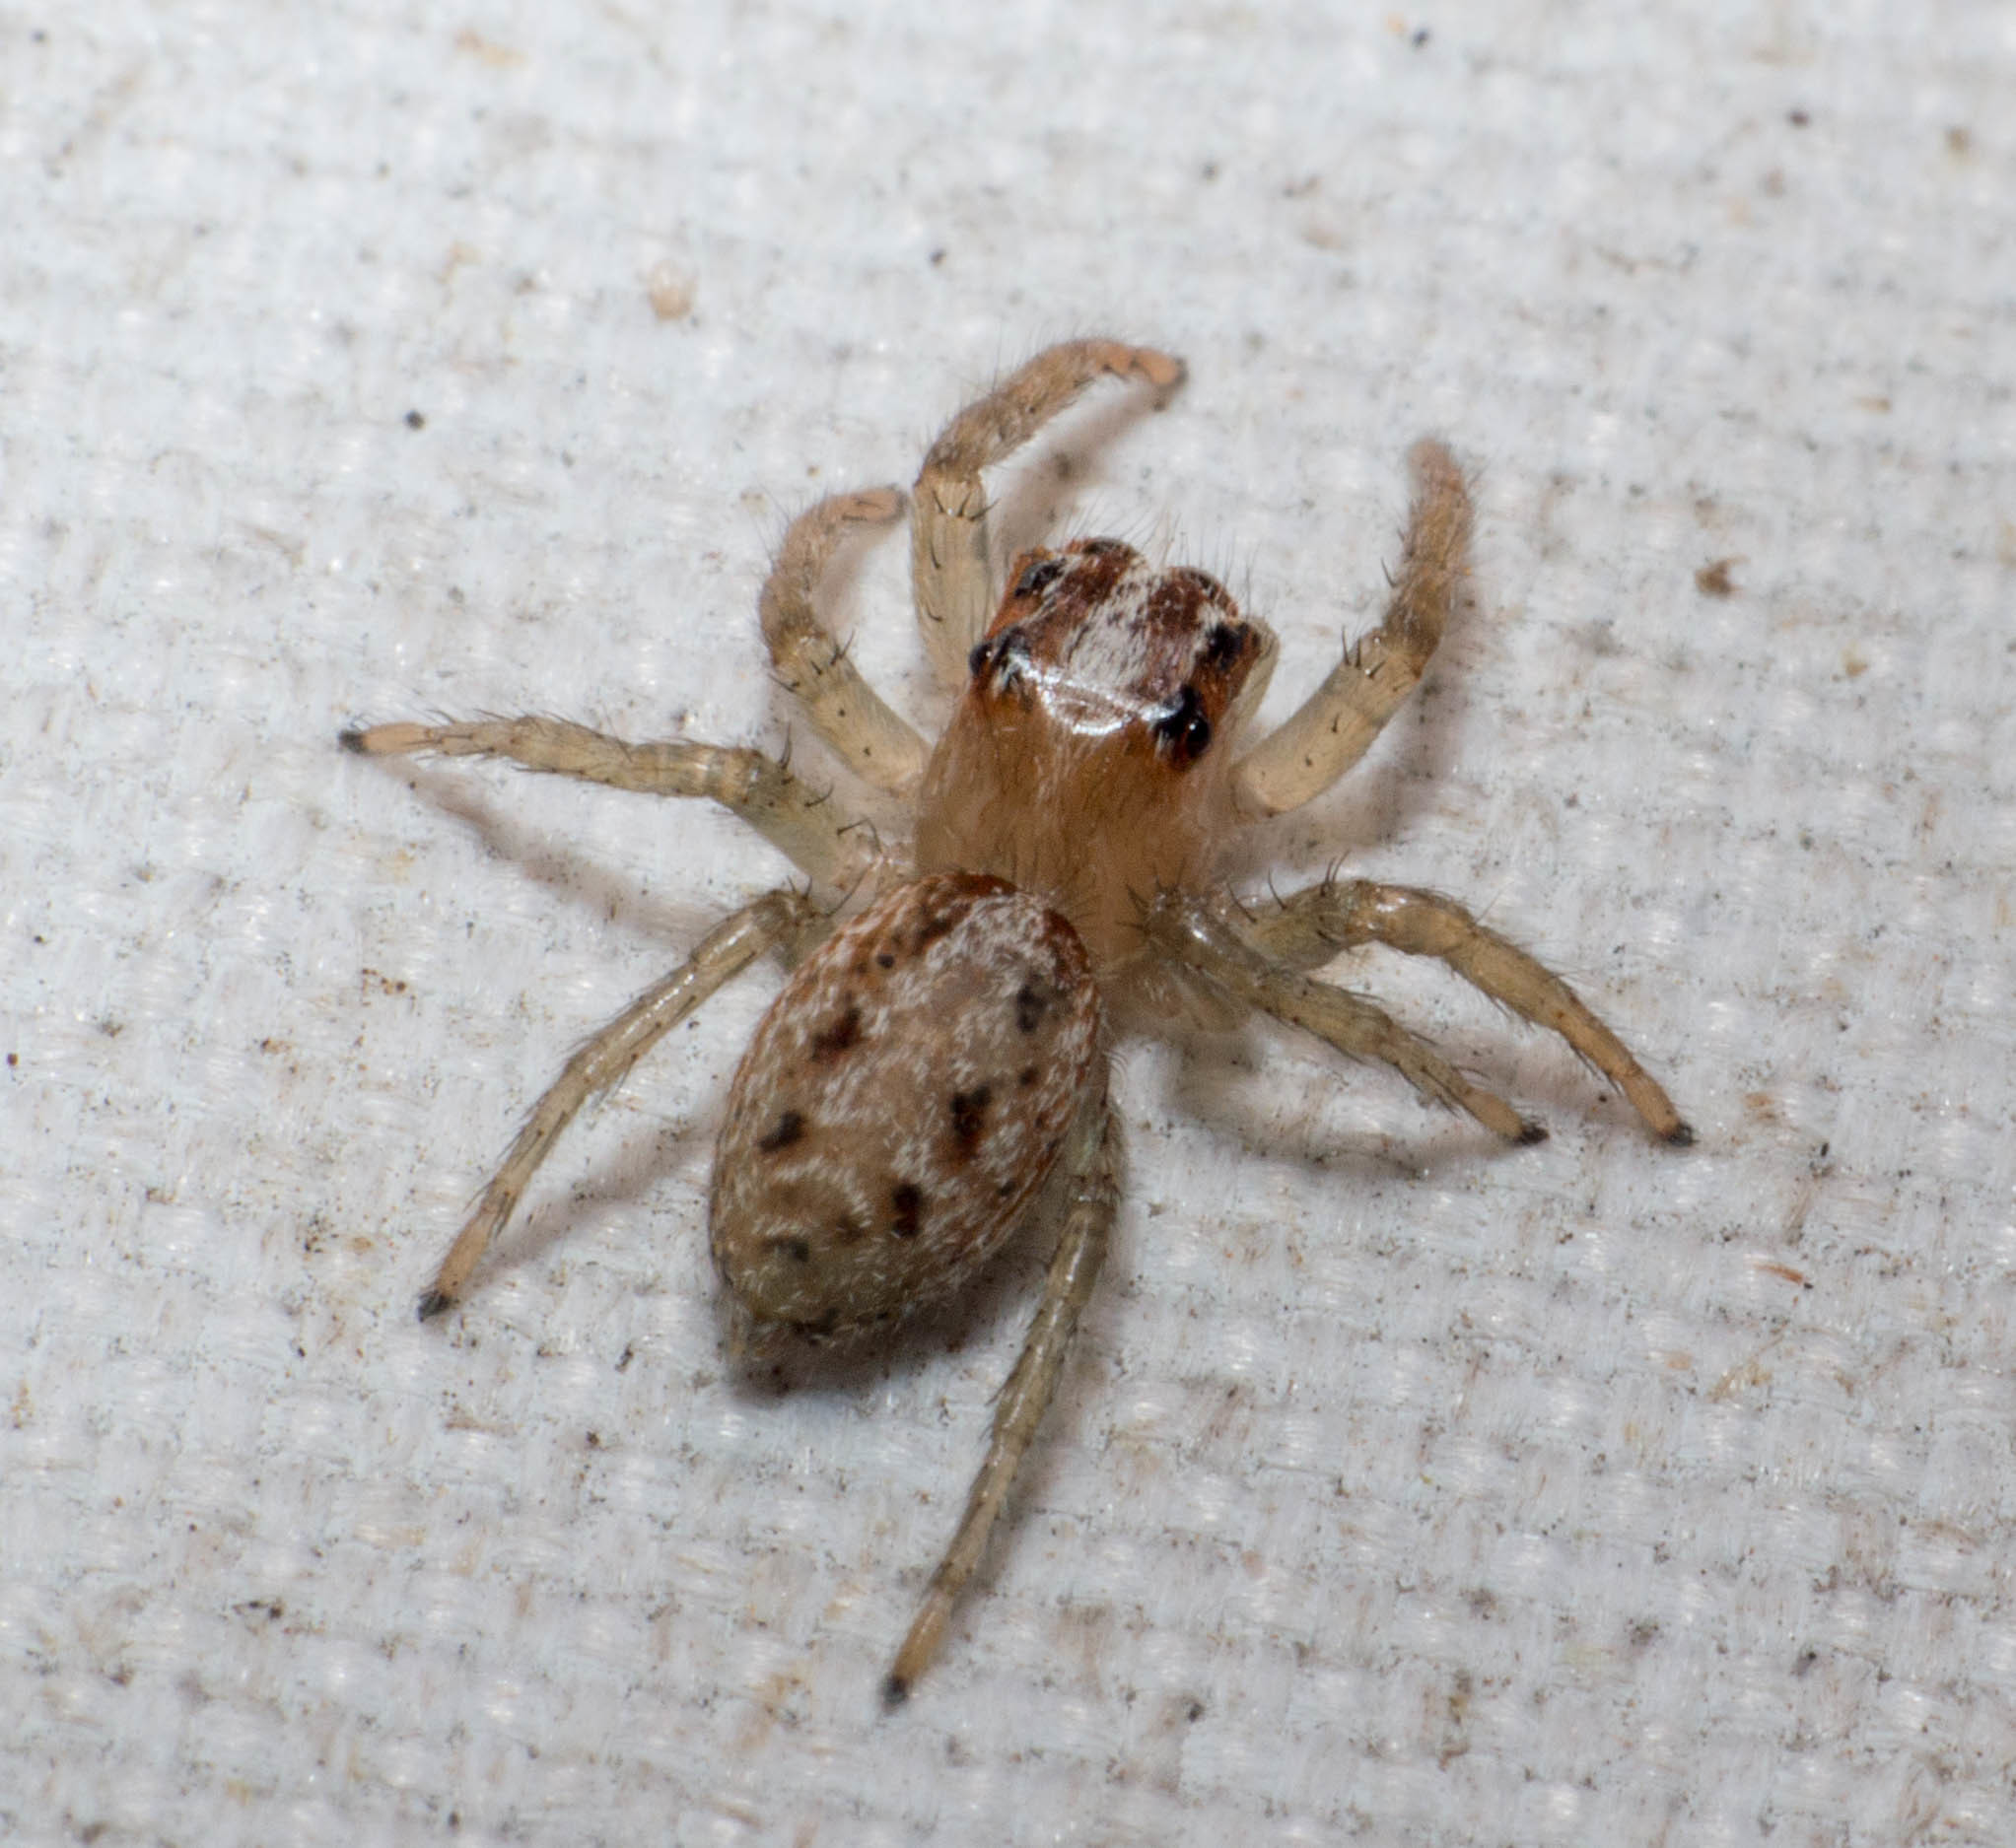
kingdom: Animalia
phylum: Arthropoda
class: Arachnida
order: Araneae
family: Salticidae
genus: Chira
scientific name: Chira gounellei
